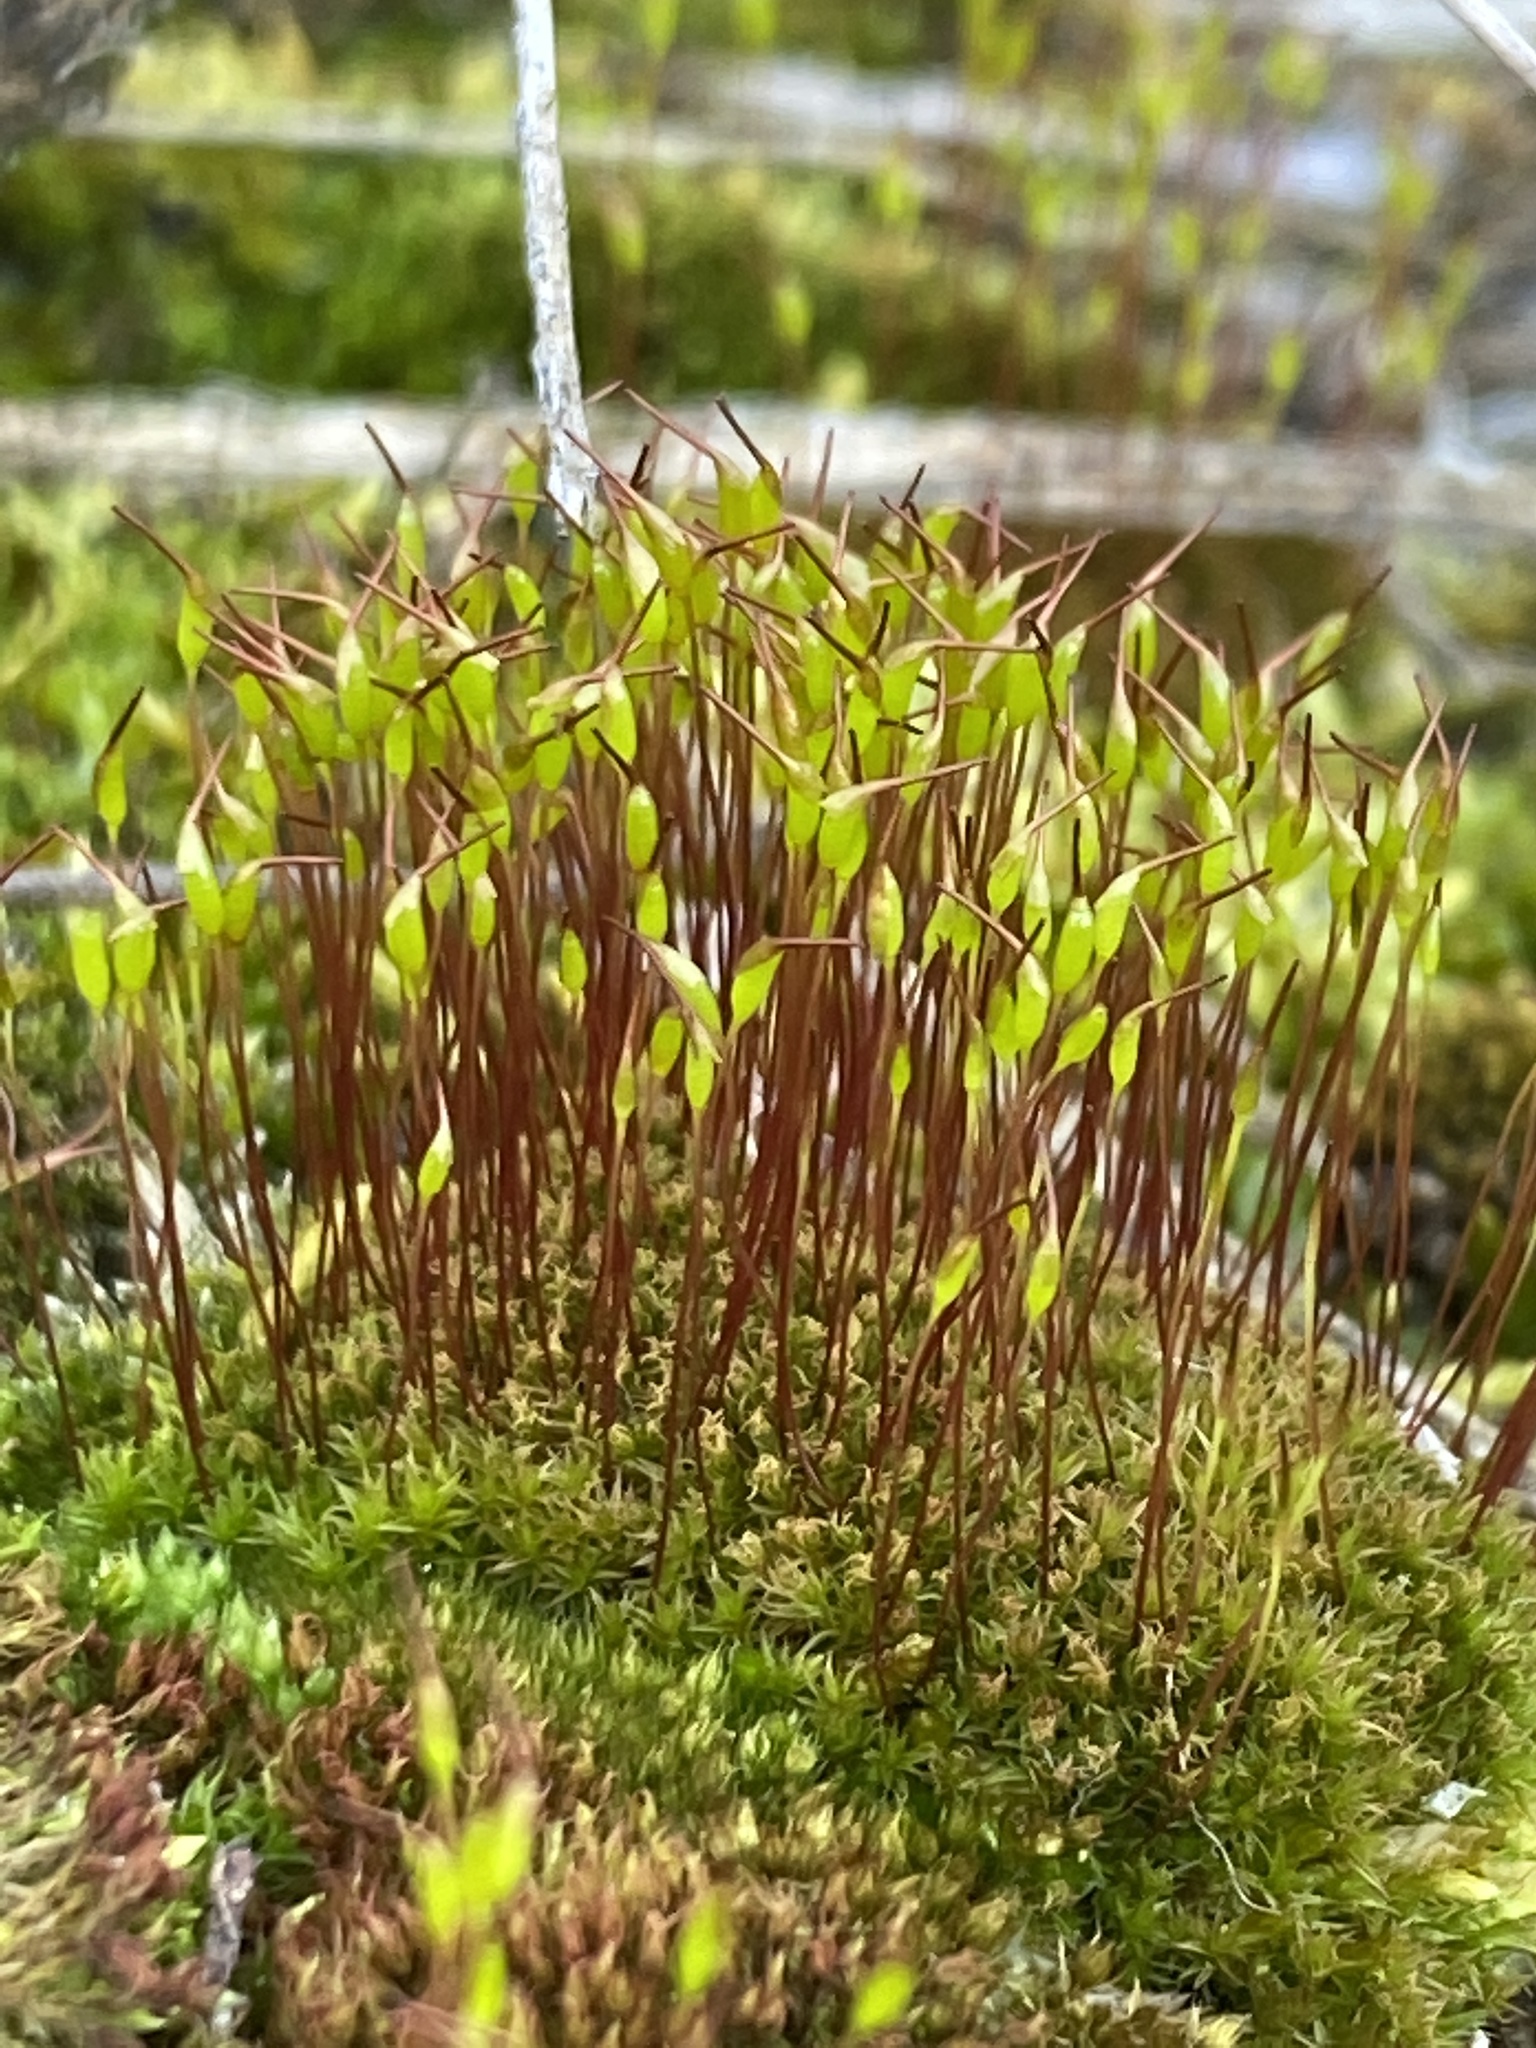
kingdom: Plantae
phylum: Bryophyta
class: Bryopsida
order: Dicranales
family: Ditrichaceae
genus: Ceratodon
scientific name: Ceratodon purpureus
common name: Redshank
